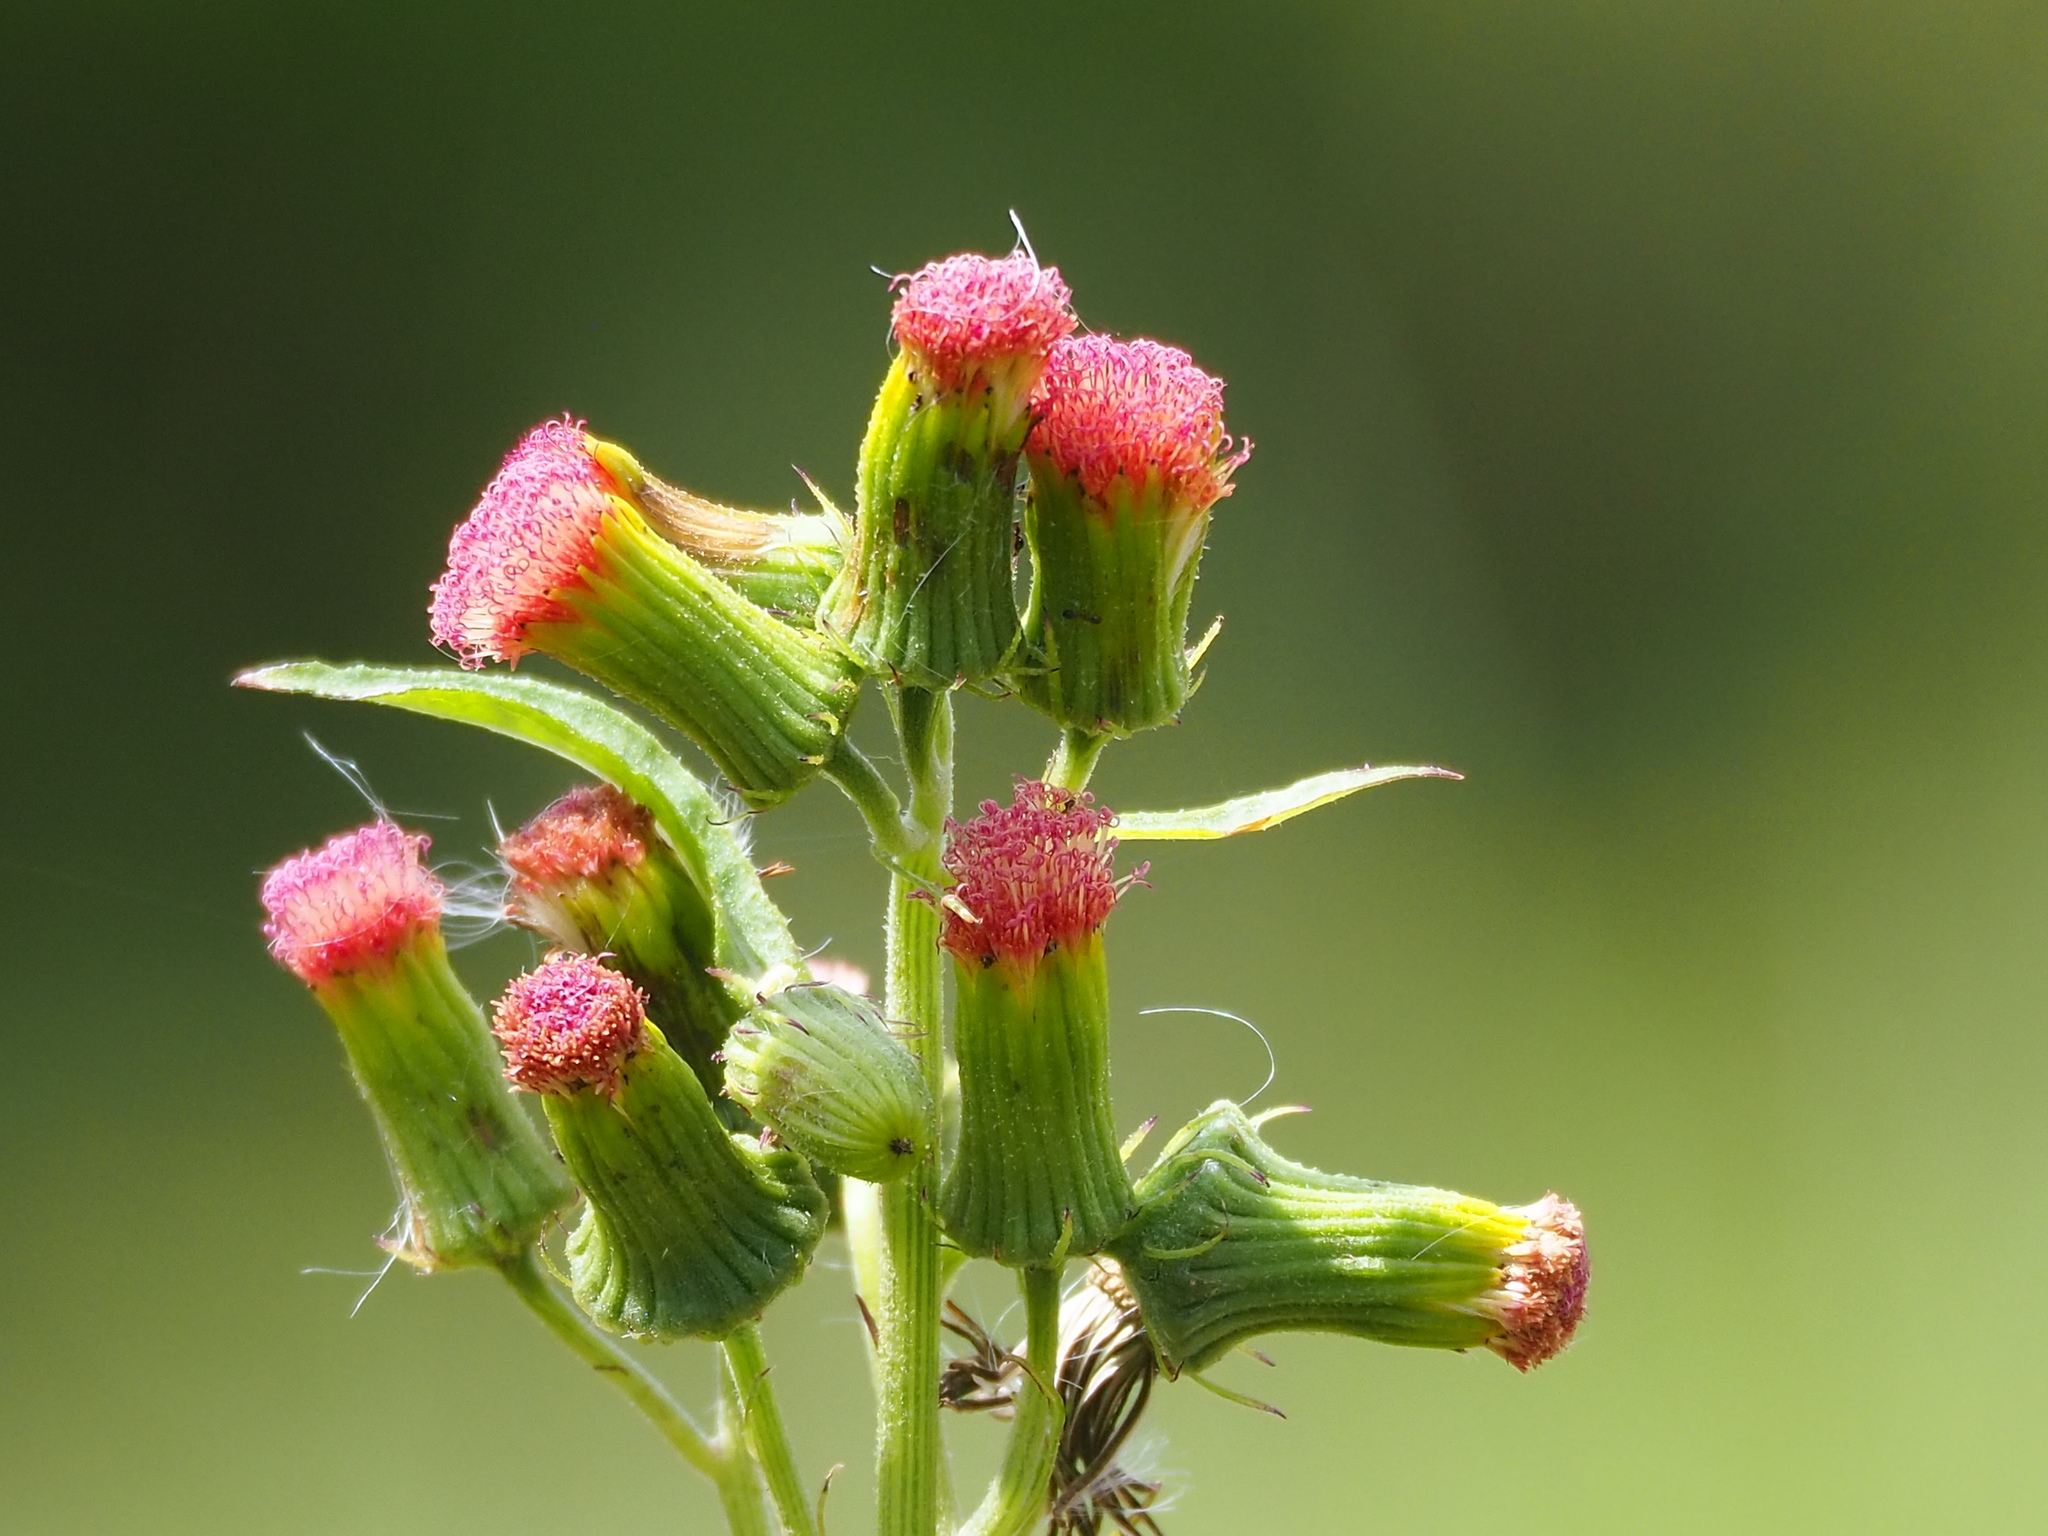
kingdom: Plantae
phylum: Tracheophyta
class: Magnoliopsida
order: Asterales
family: Asteraceae
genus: Crassocephalum
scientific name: Crassocephalum crepidioides
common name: Redflower ragleaf
